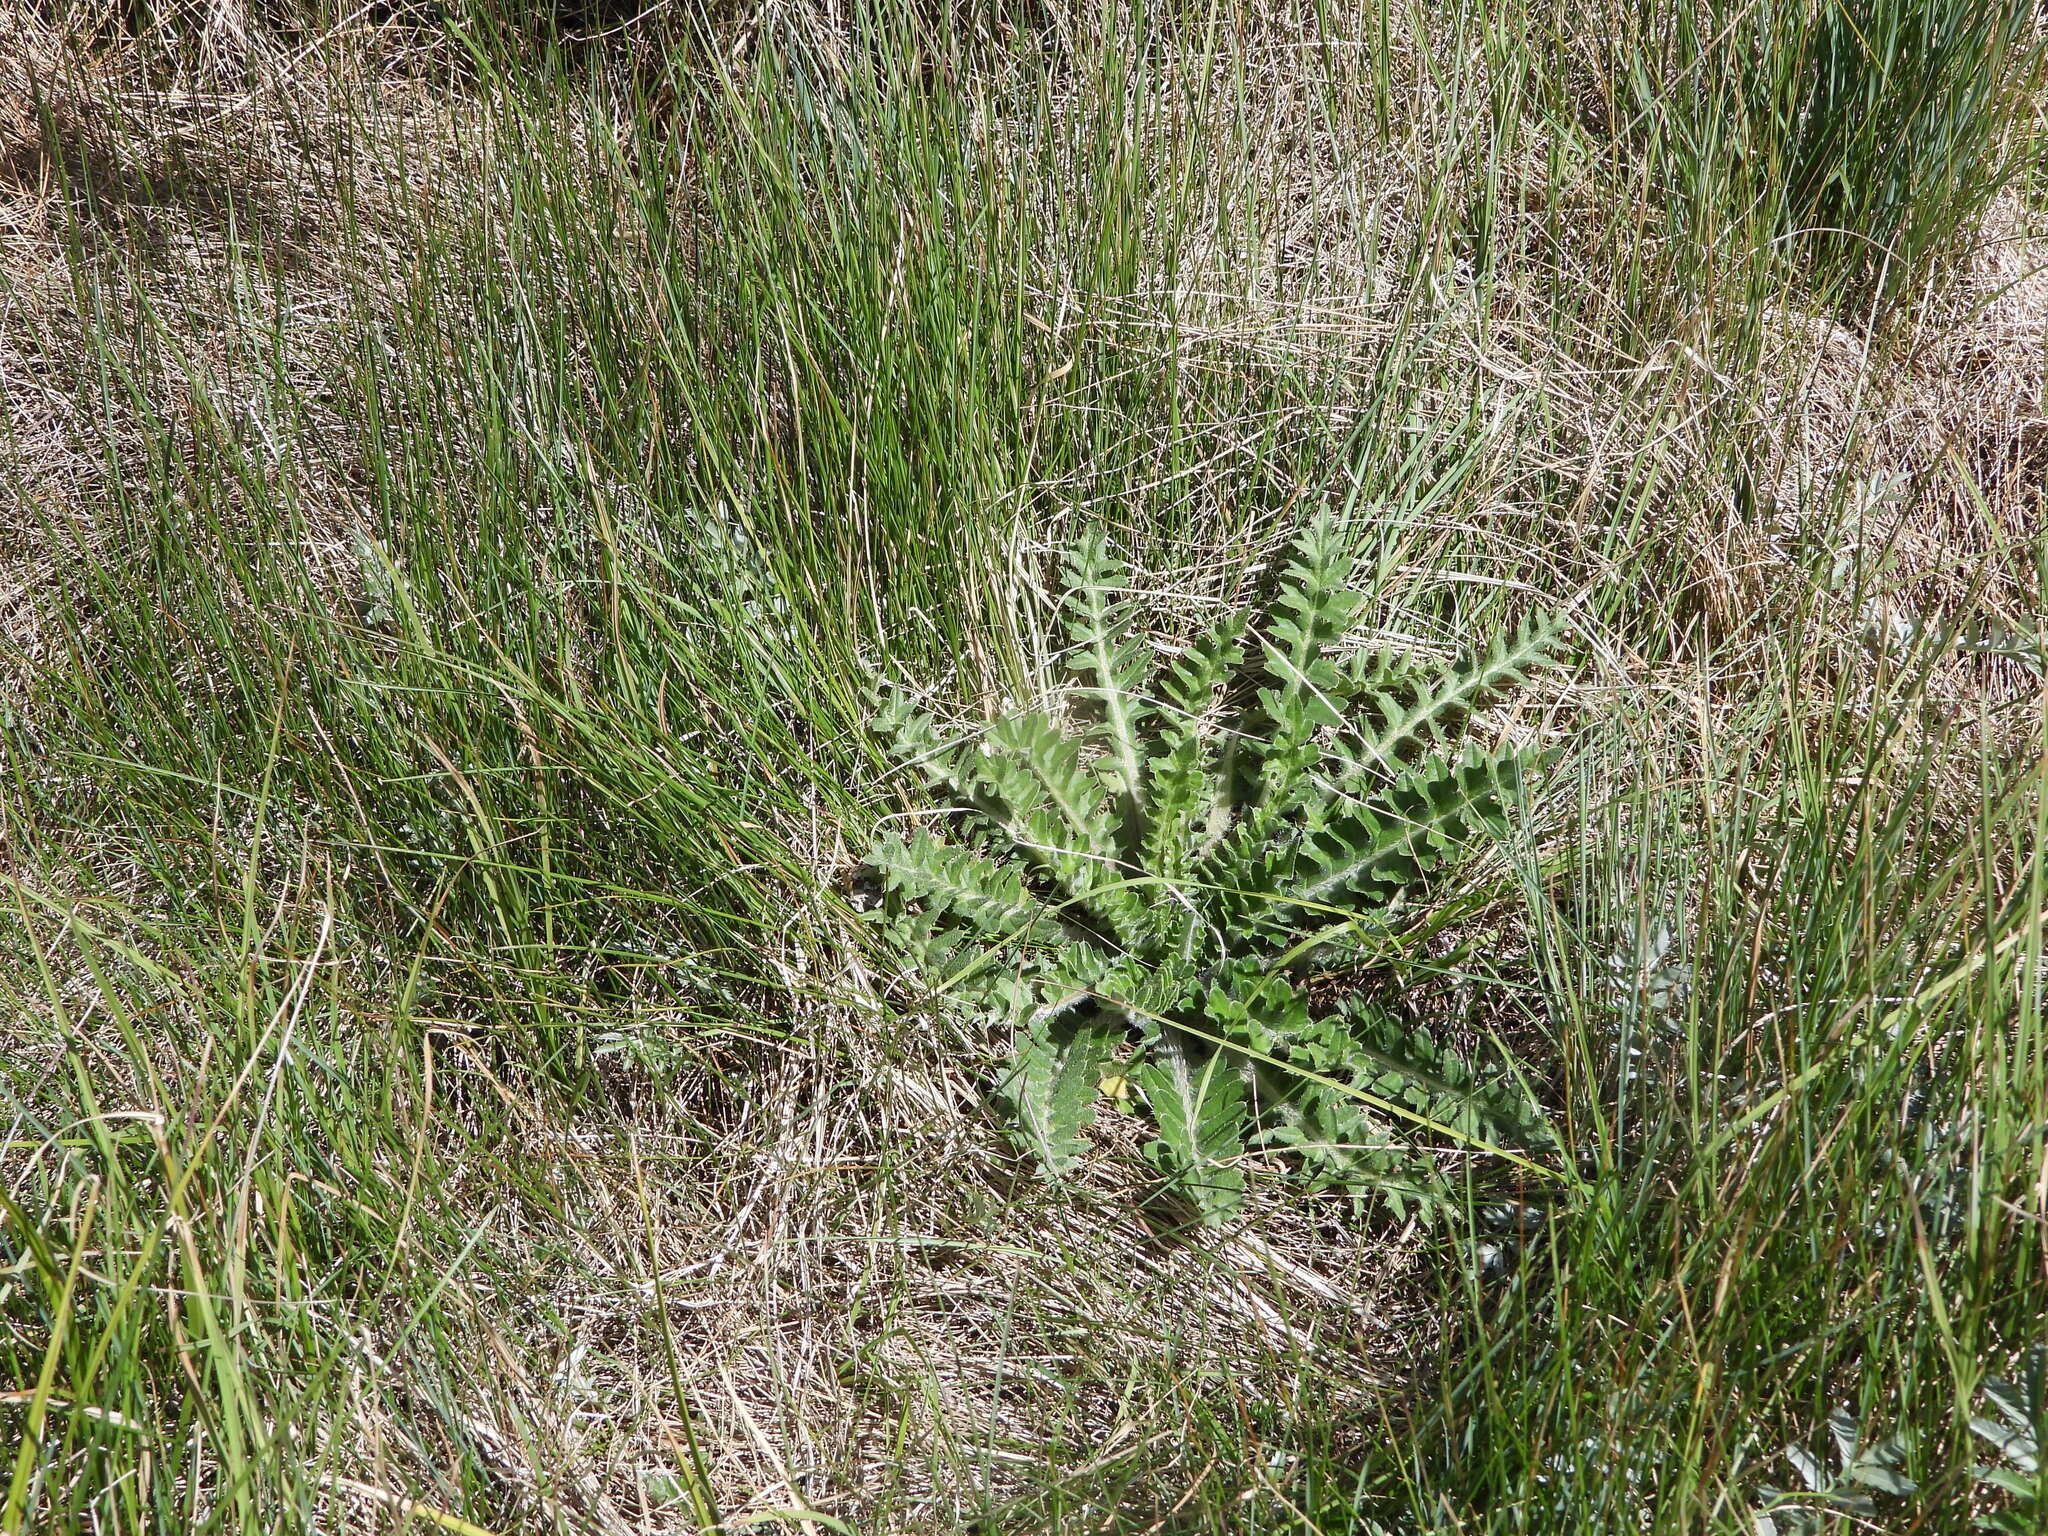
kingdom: Plantae
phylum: Tracheophyta
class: Magnoliopsida
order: Asterales
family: Asteraceae
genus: Cirsium
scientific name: Cirsium tioganum
